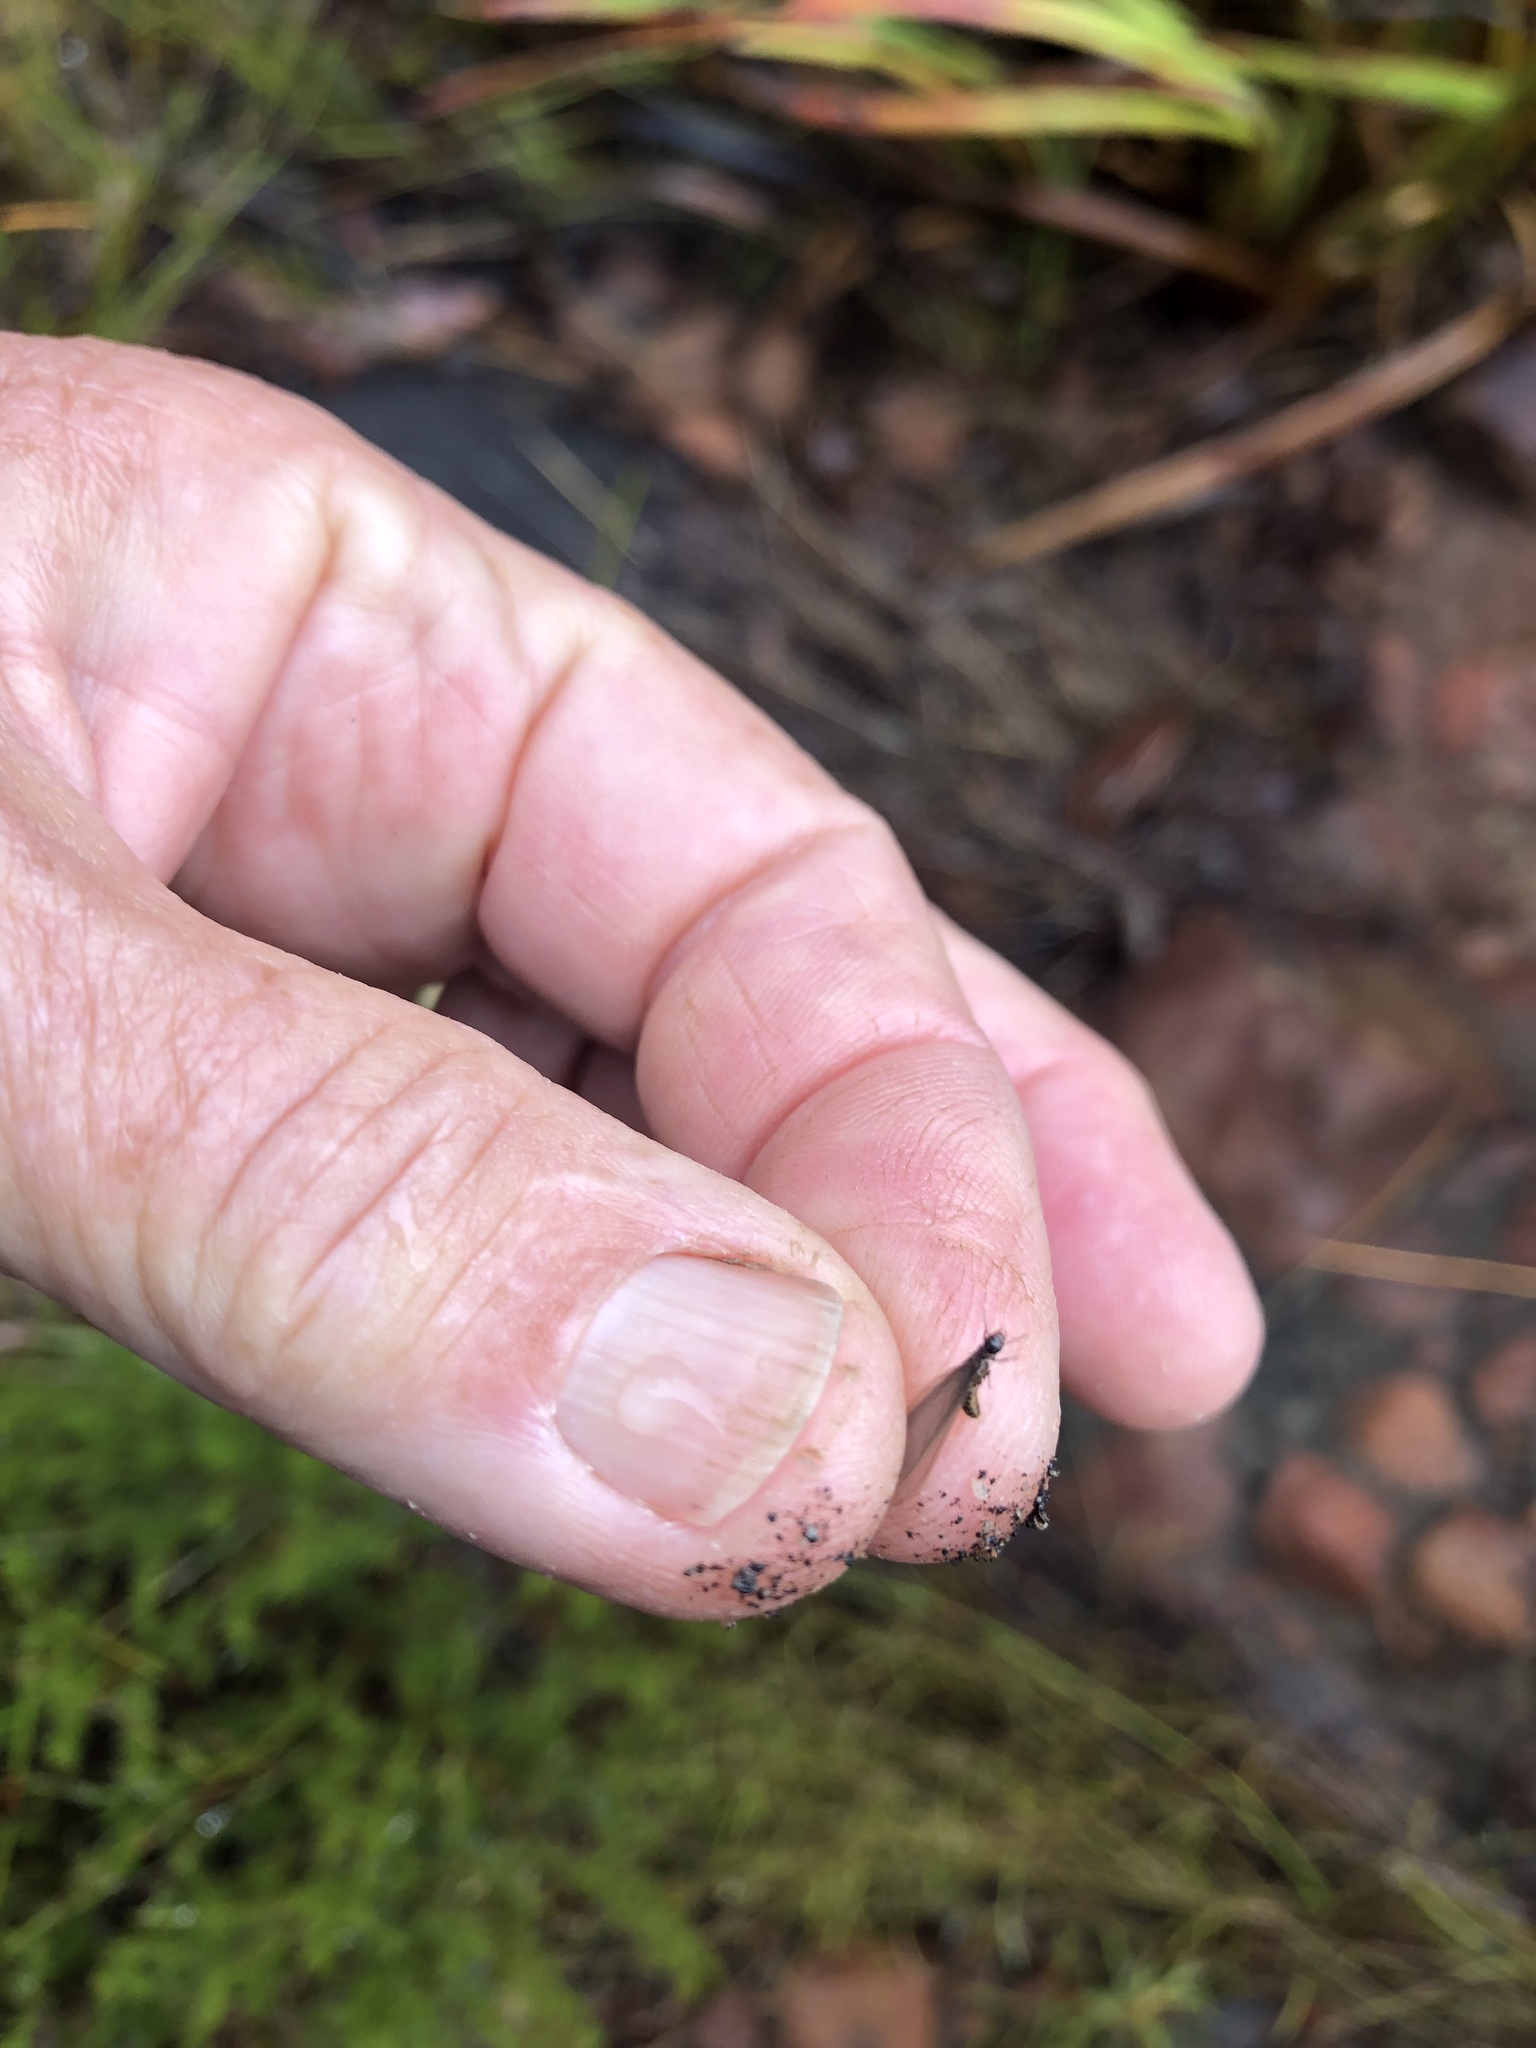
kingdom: Animalia
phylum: Arthropoda
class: Insecta
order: Blattodea
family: Termitidae
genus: Amitermes
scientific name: Amitermes hastatus
